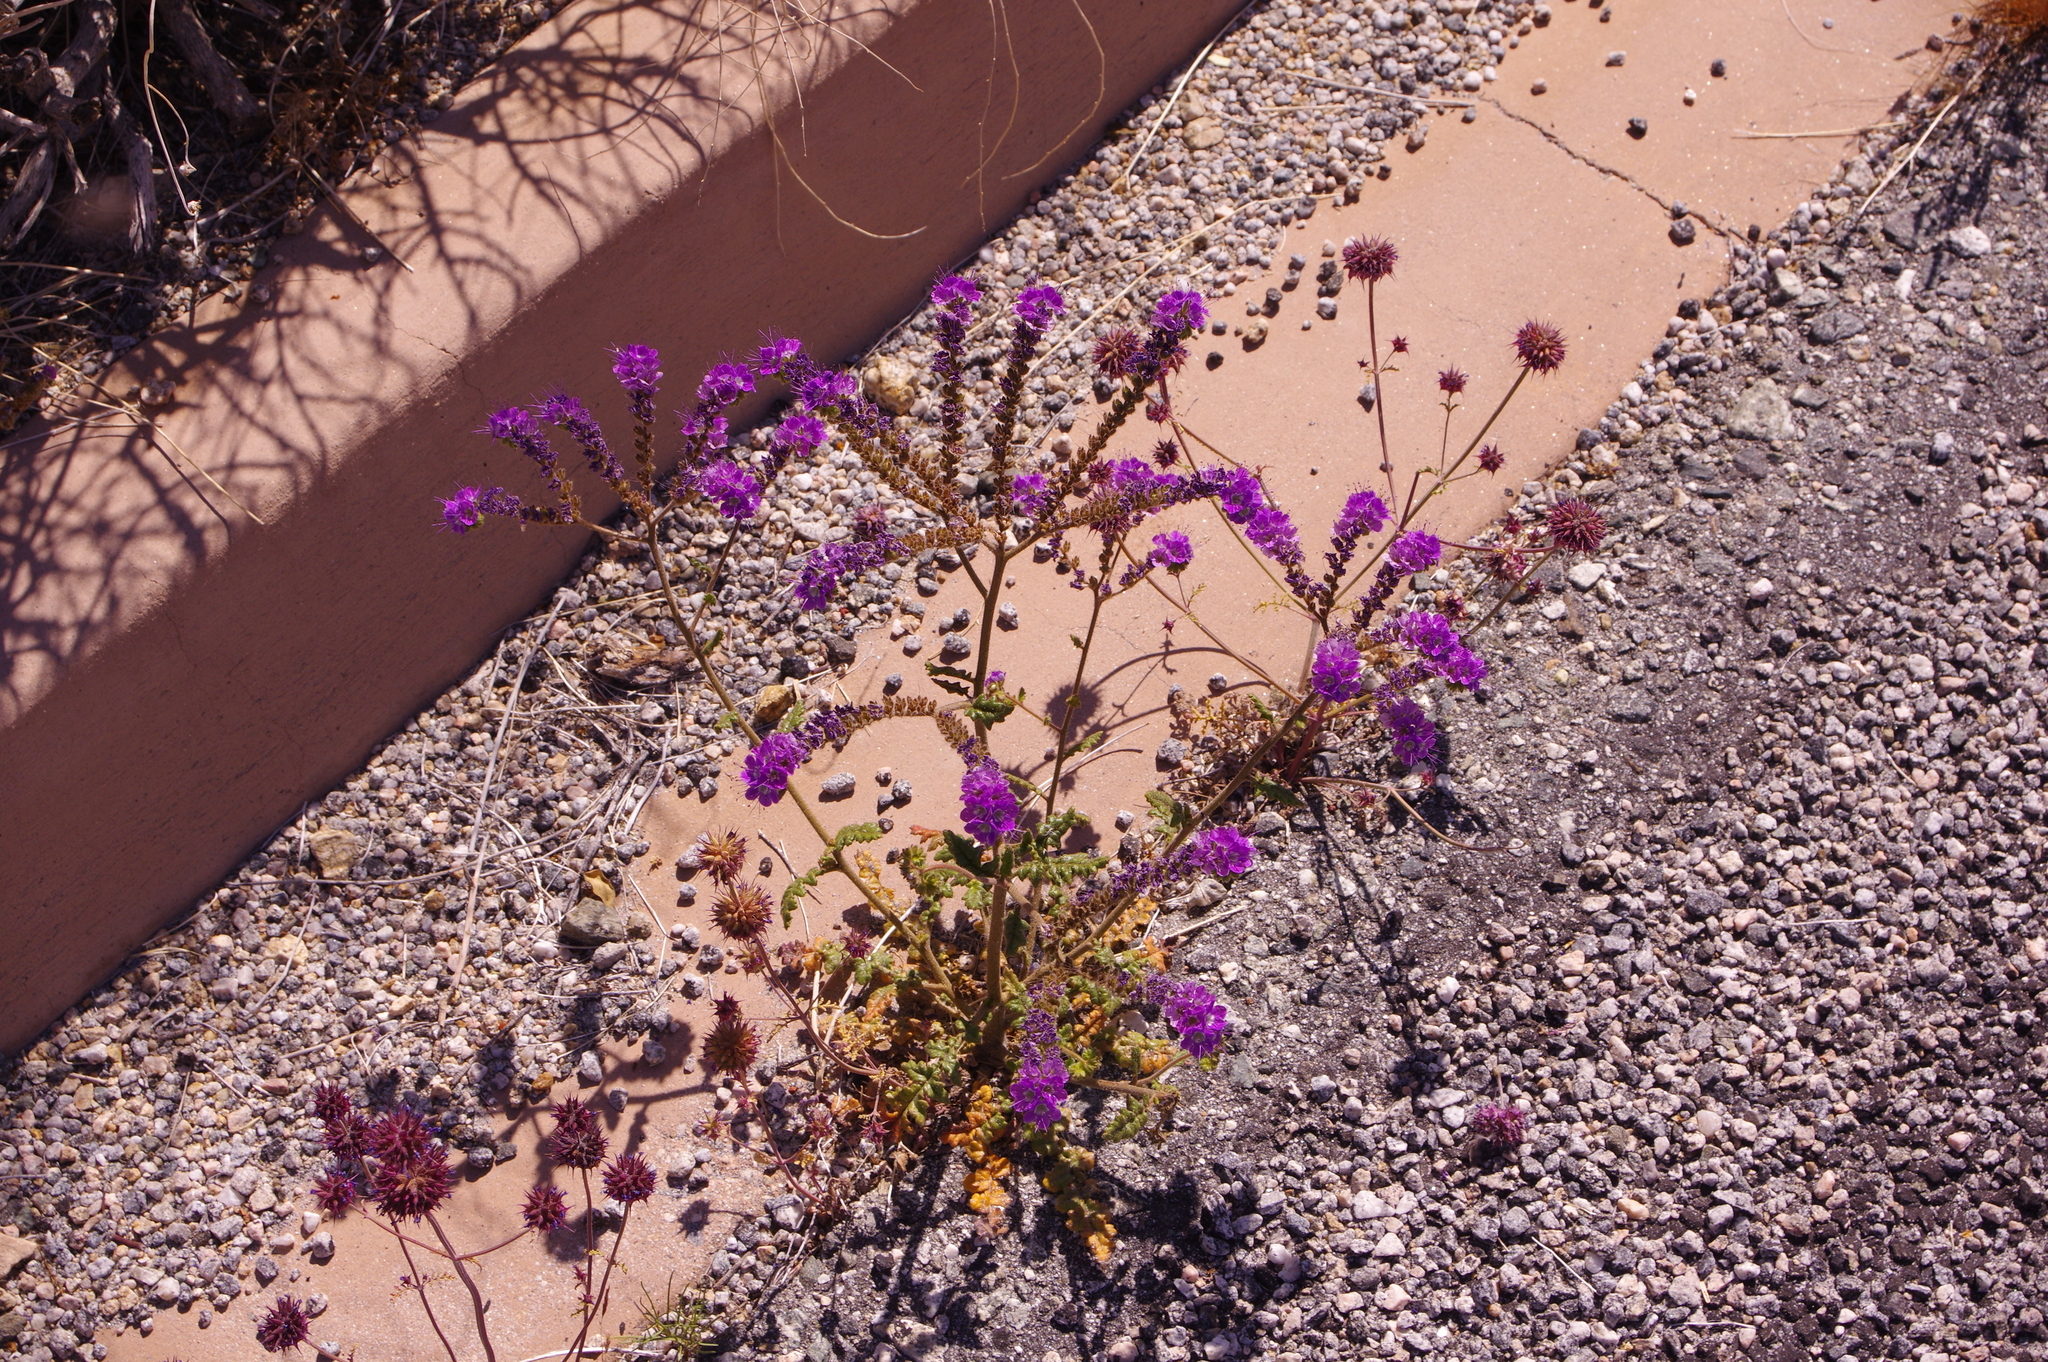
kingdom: Plantae
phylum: Tracheophyta
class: Magnoliopsida
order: Boraginales
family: Hydrophyllaceae
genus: Phacelia
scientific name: Phacelia crenulata
